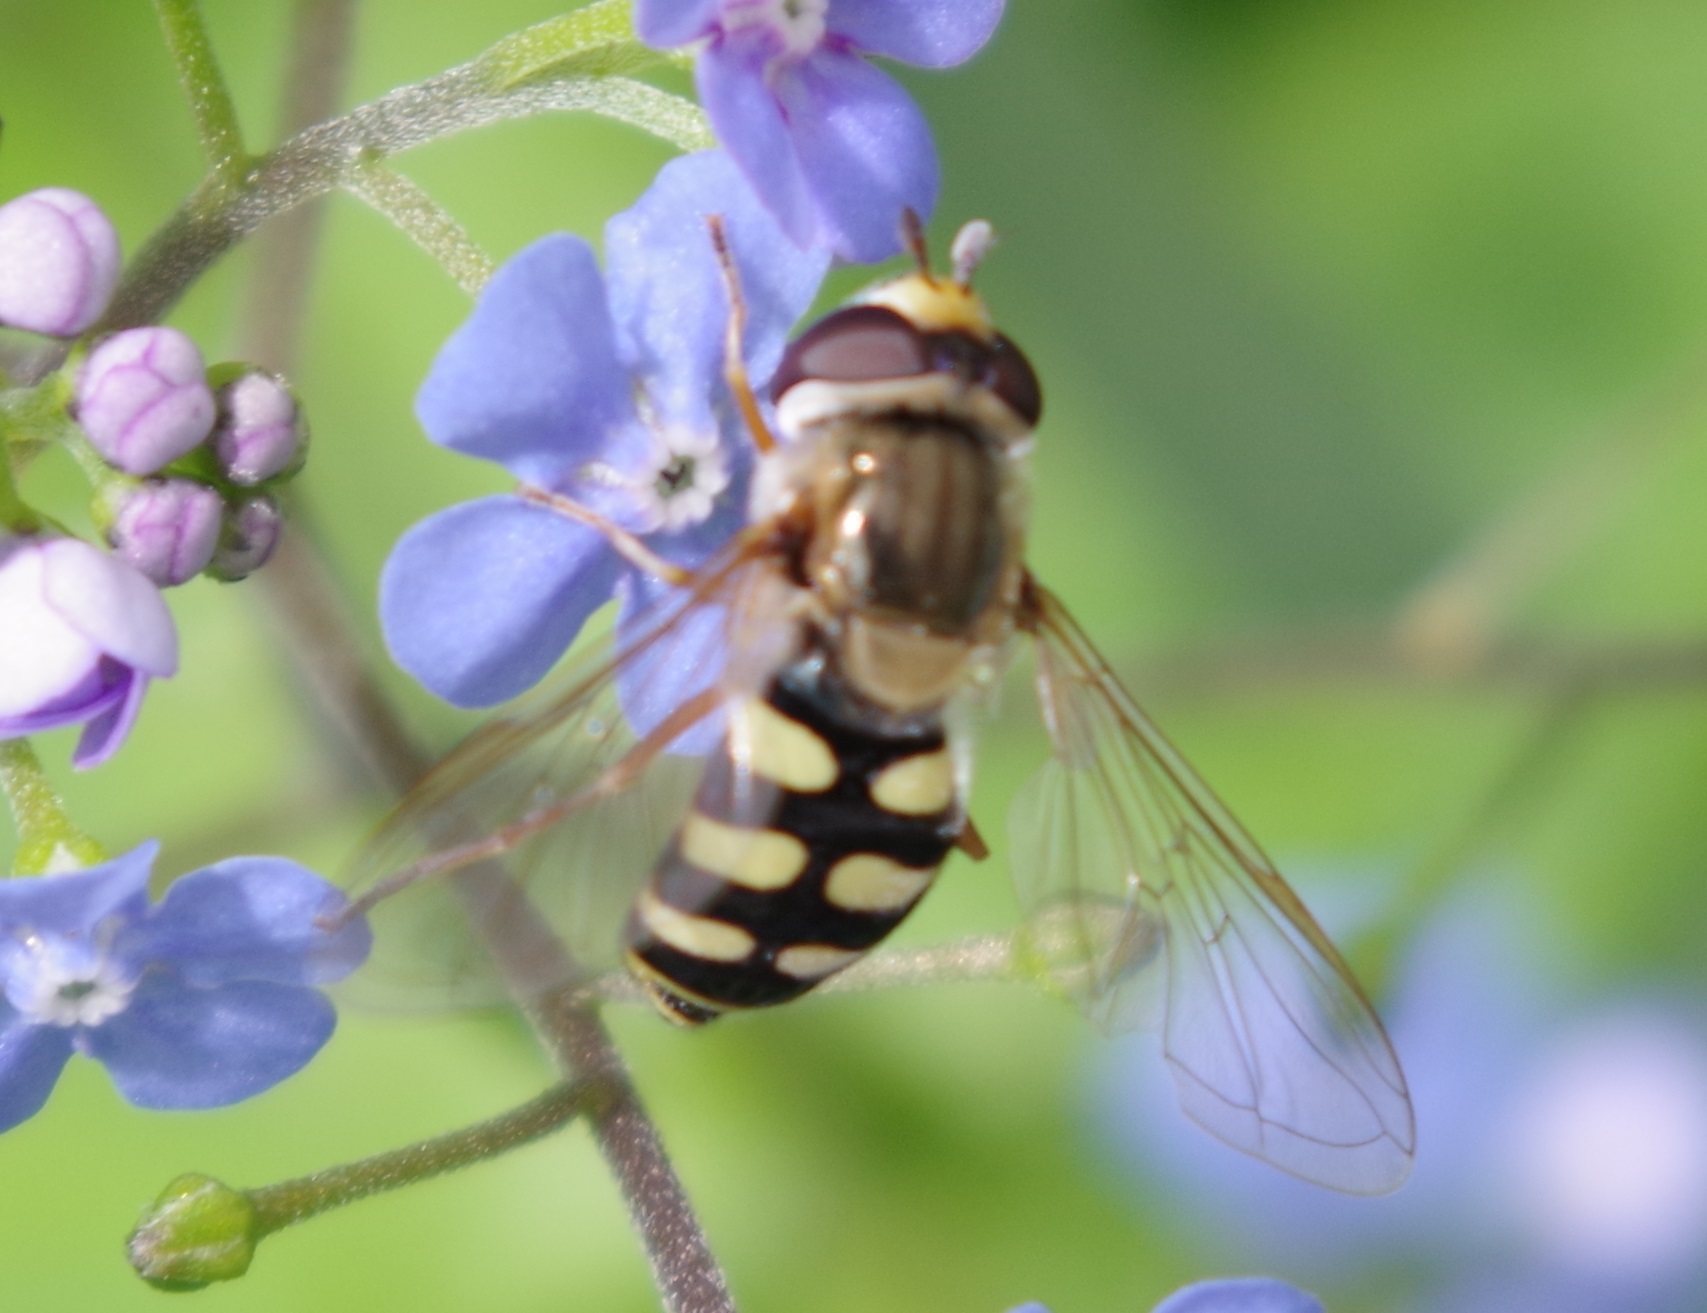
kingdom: Animalia
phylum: Arthropoda
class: Insecta
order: Diptera
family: Syrphidae
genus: Eupeodes
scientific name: Eupeodes corollae
